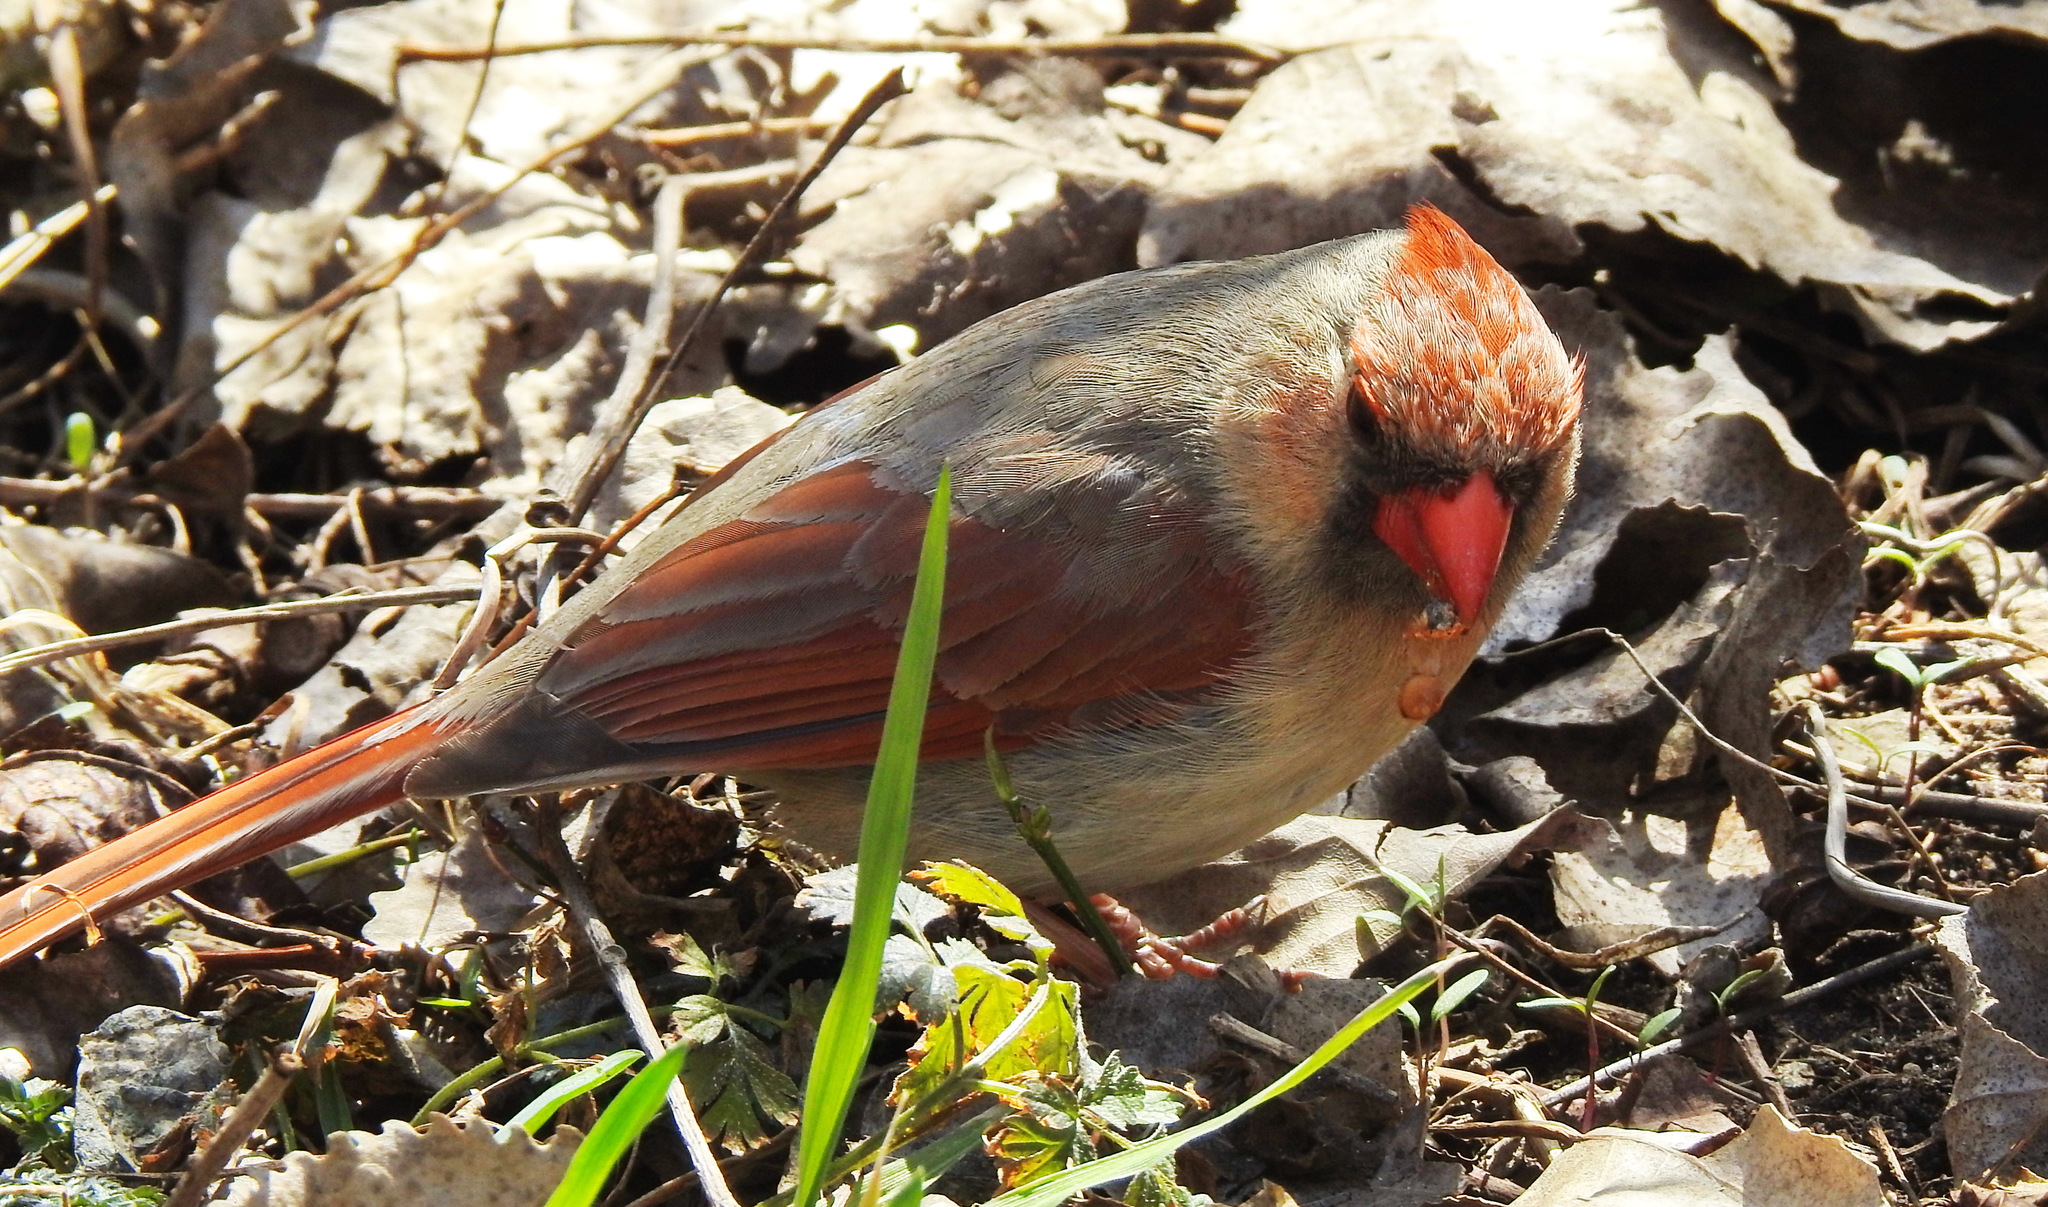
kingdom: Animalia
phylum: Chordata
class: Aves
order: Passeriformes
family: Cardinalidae
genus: Cardinalis
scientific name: Cardinalis cardinalis
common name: Northern cardinal
